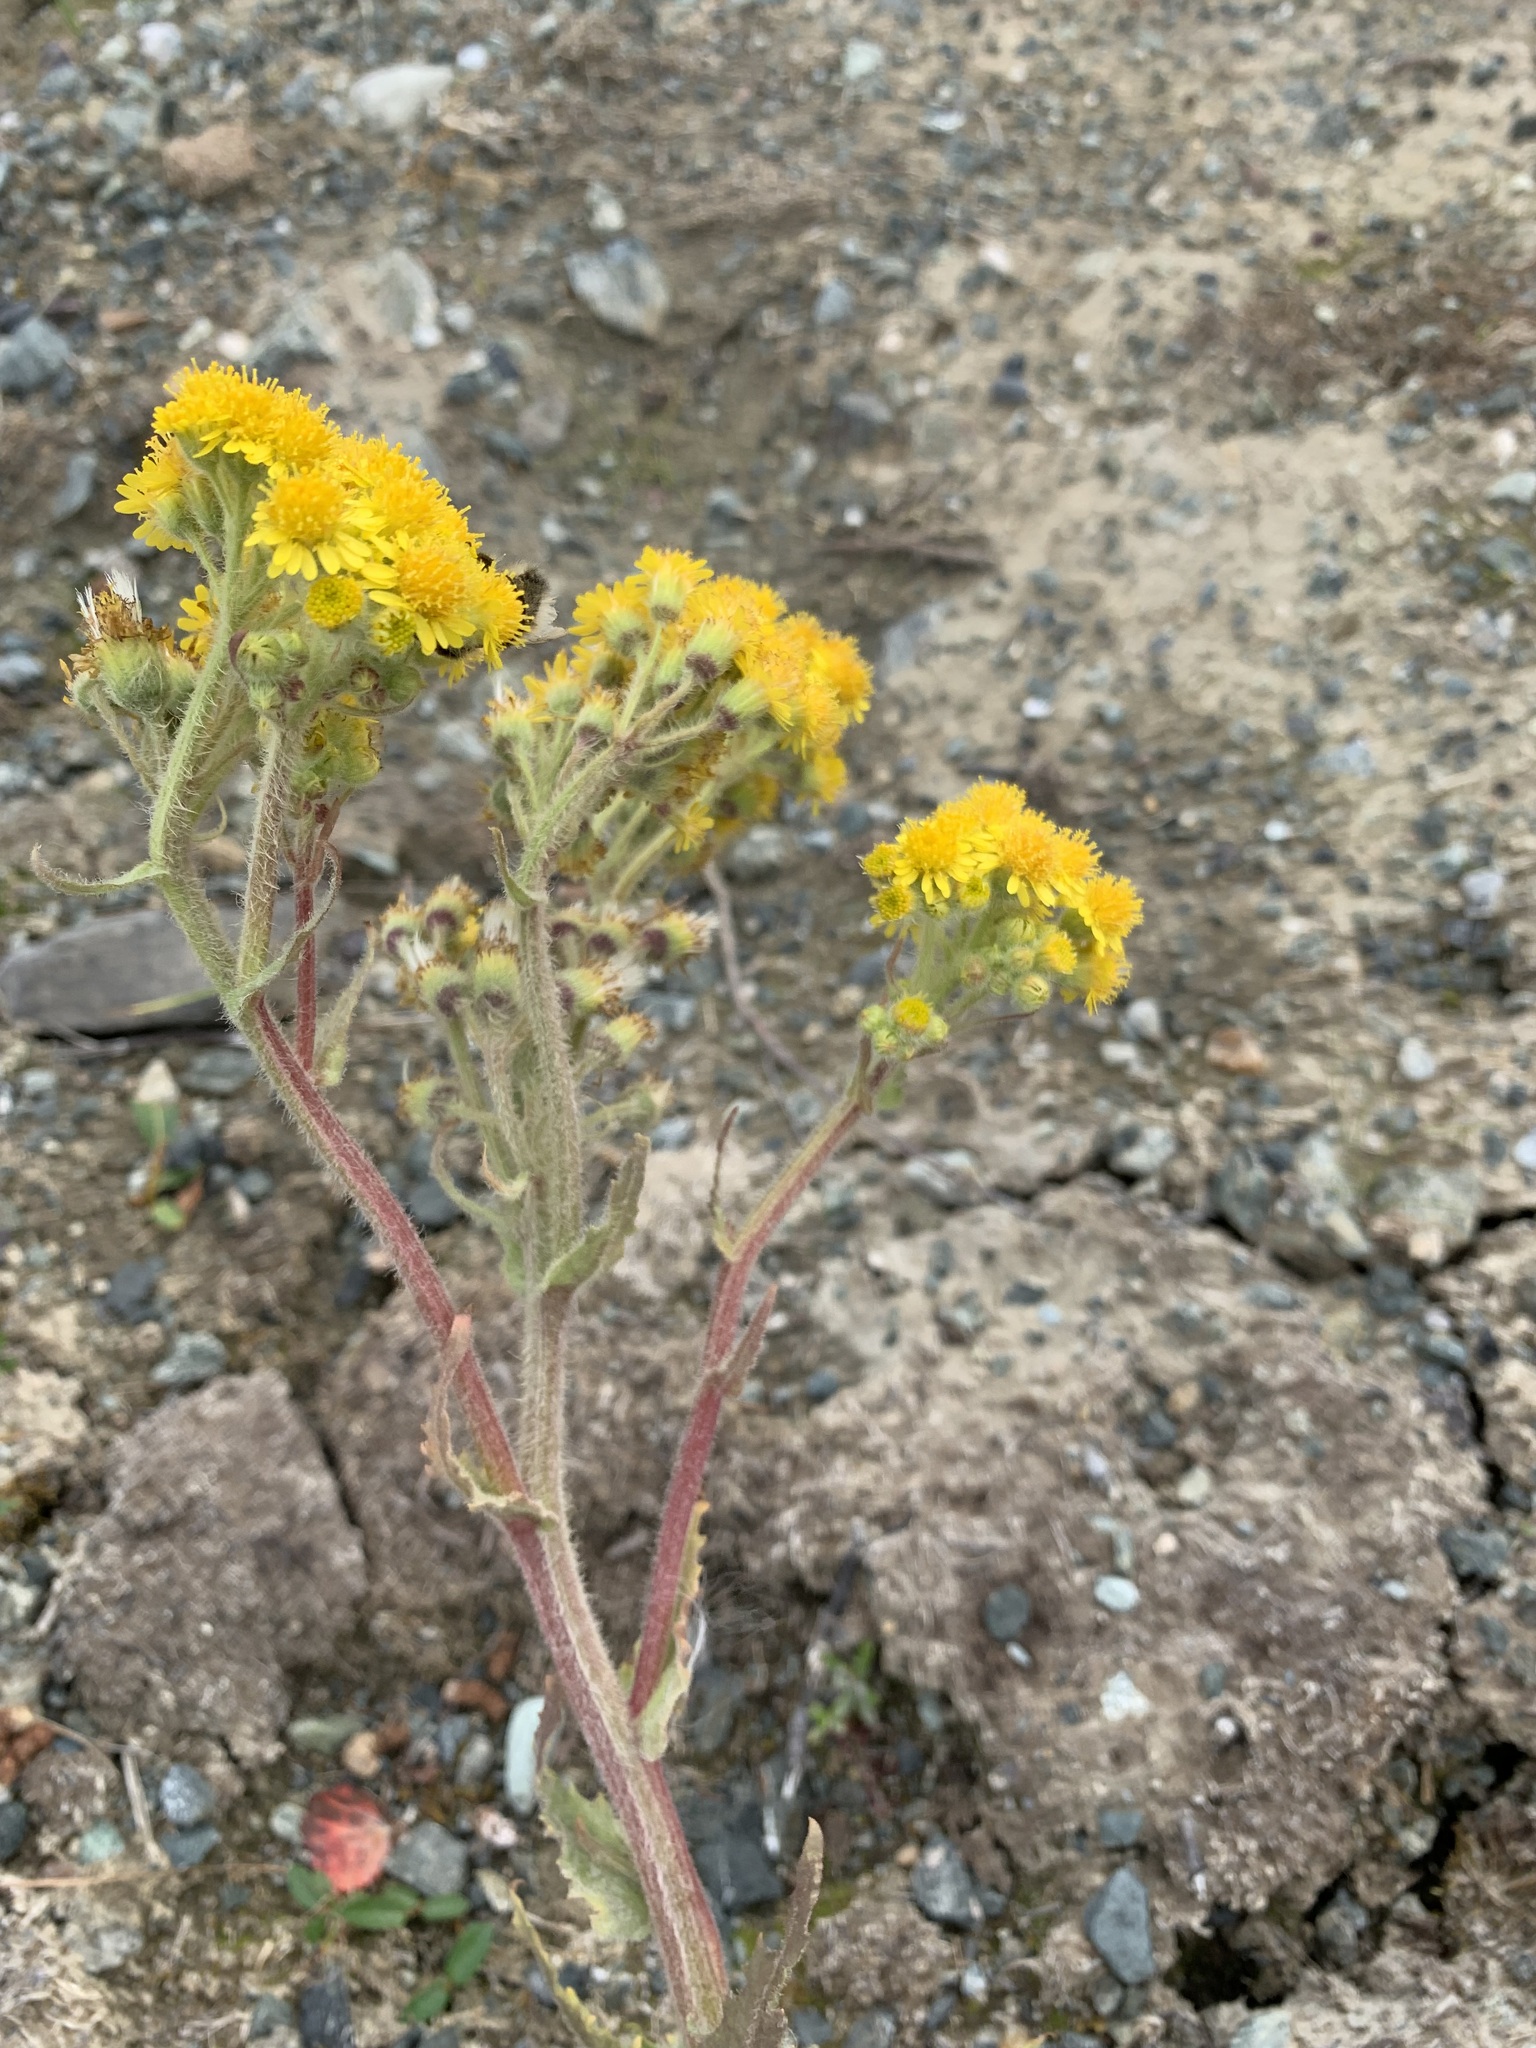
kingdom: Plantae
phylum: Tracheophyta
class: Magnoliopsida
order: Asterales
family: Asteraceae
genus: Tephroseris
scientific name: Tephroseris palustris
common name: Marsh fleawort
